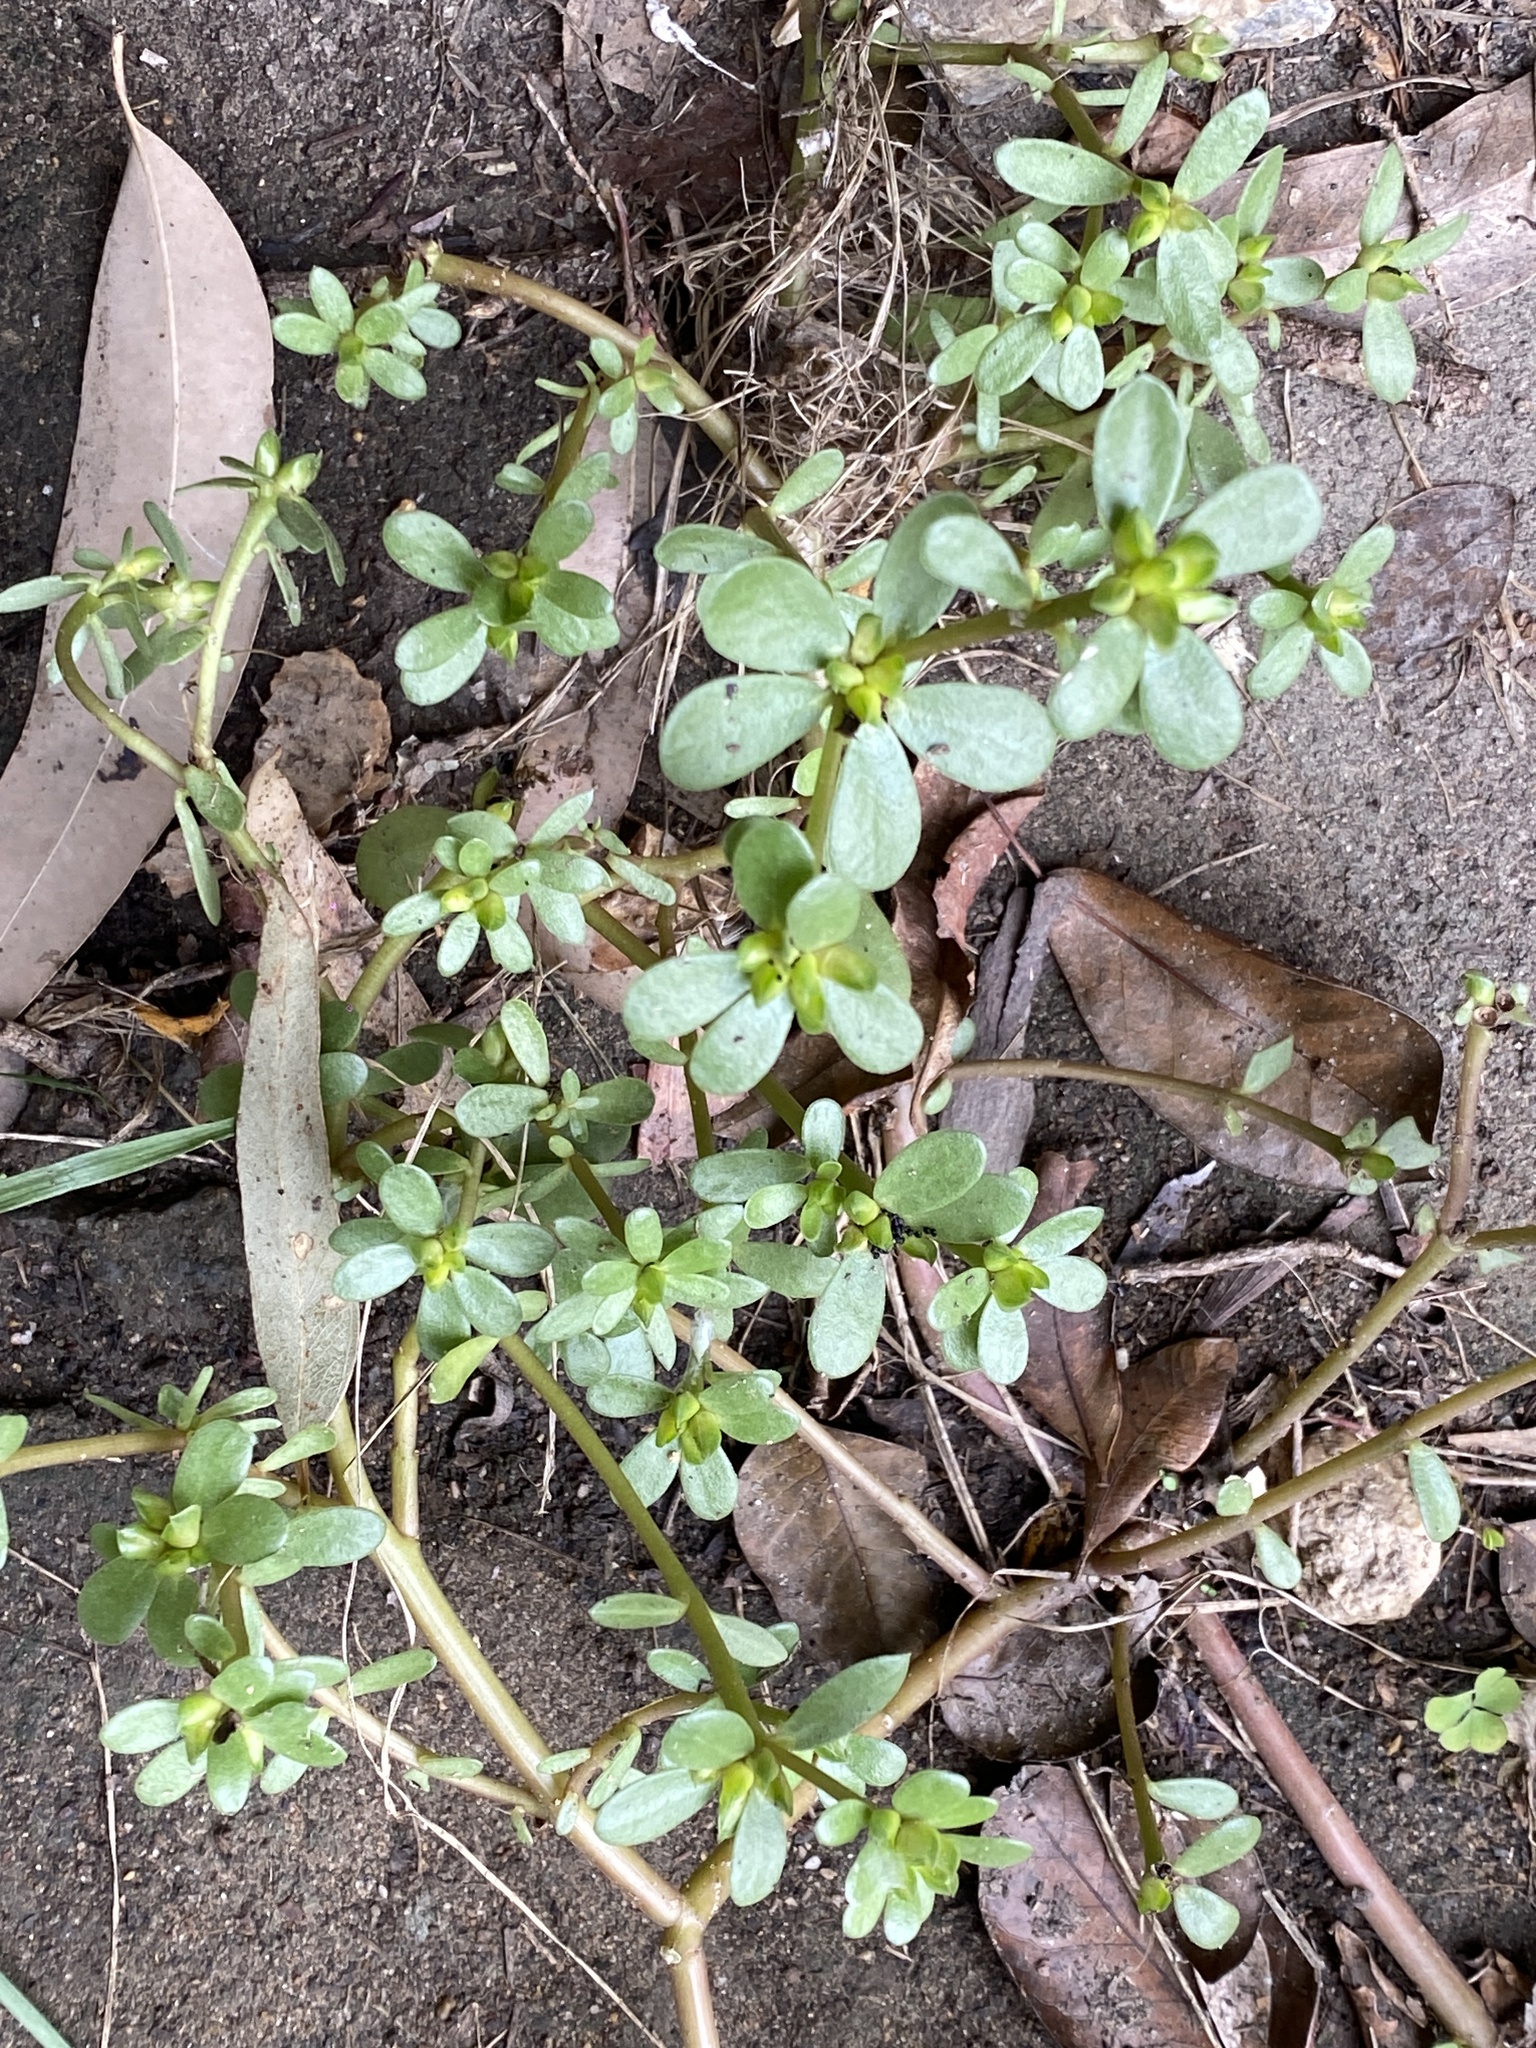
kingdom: Plantae
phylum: Tracheophyta
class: Magnoliopsida
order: Caryophyllales
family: Portulacaceae
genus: Portulaca
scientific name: Portulaca oleracea
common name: Common purslane
